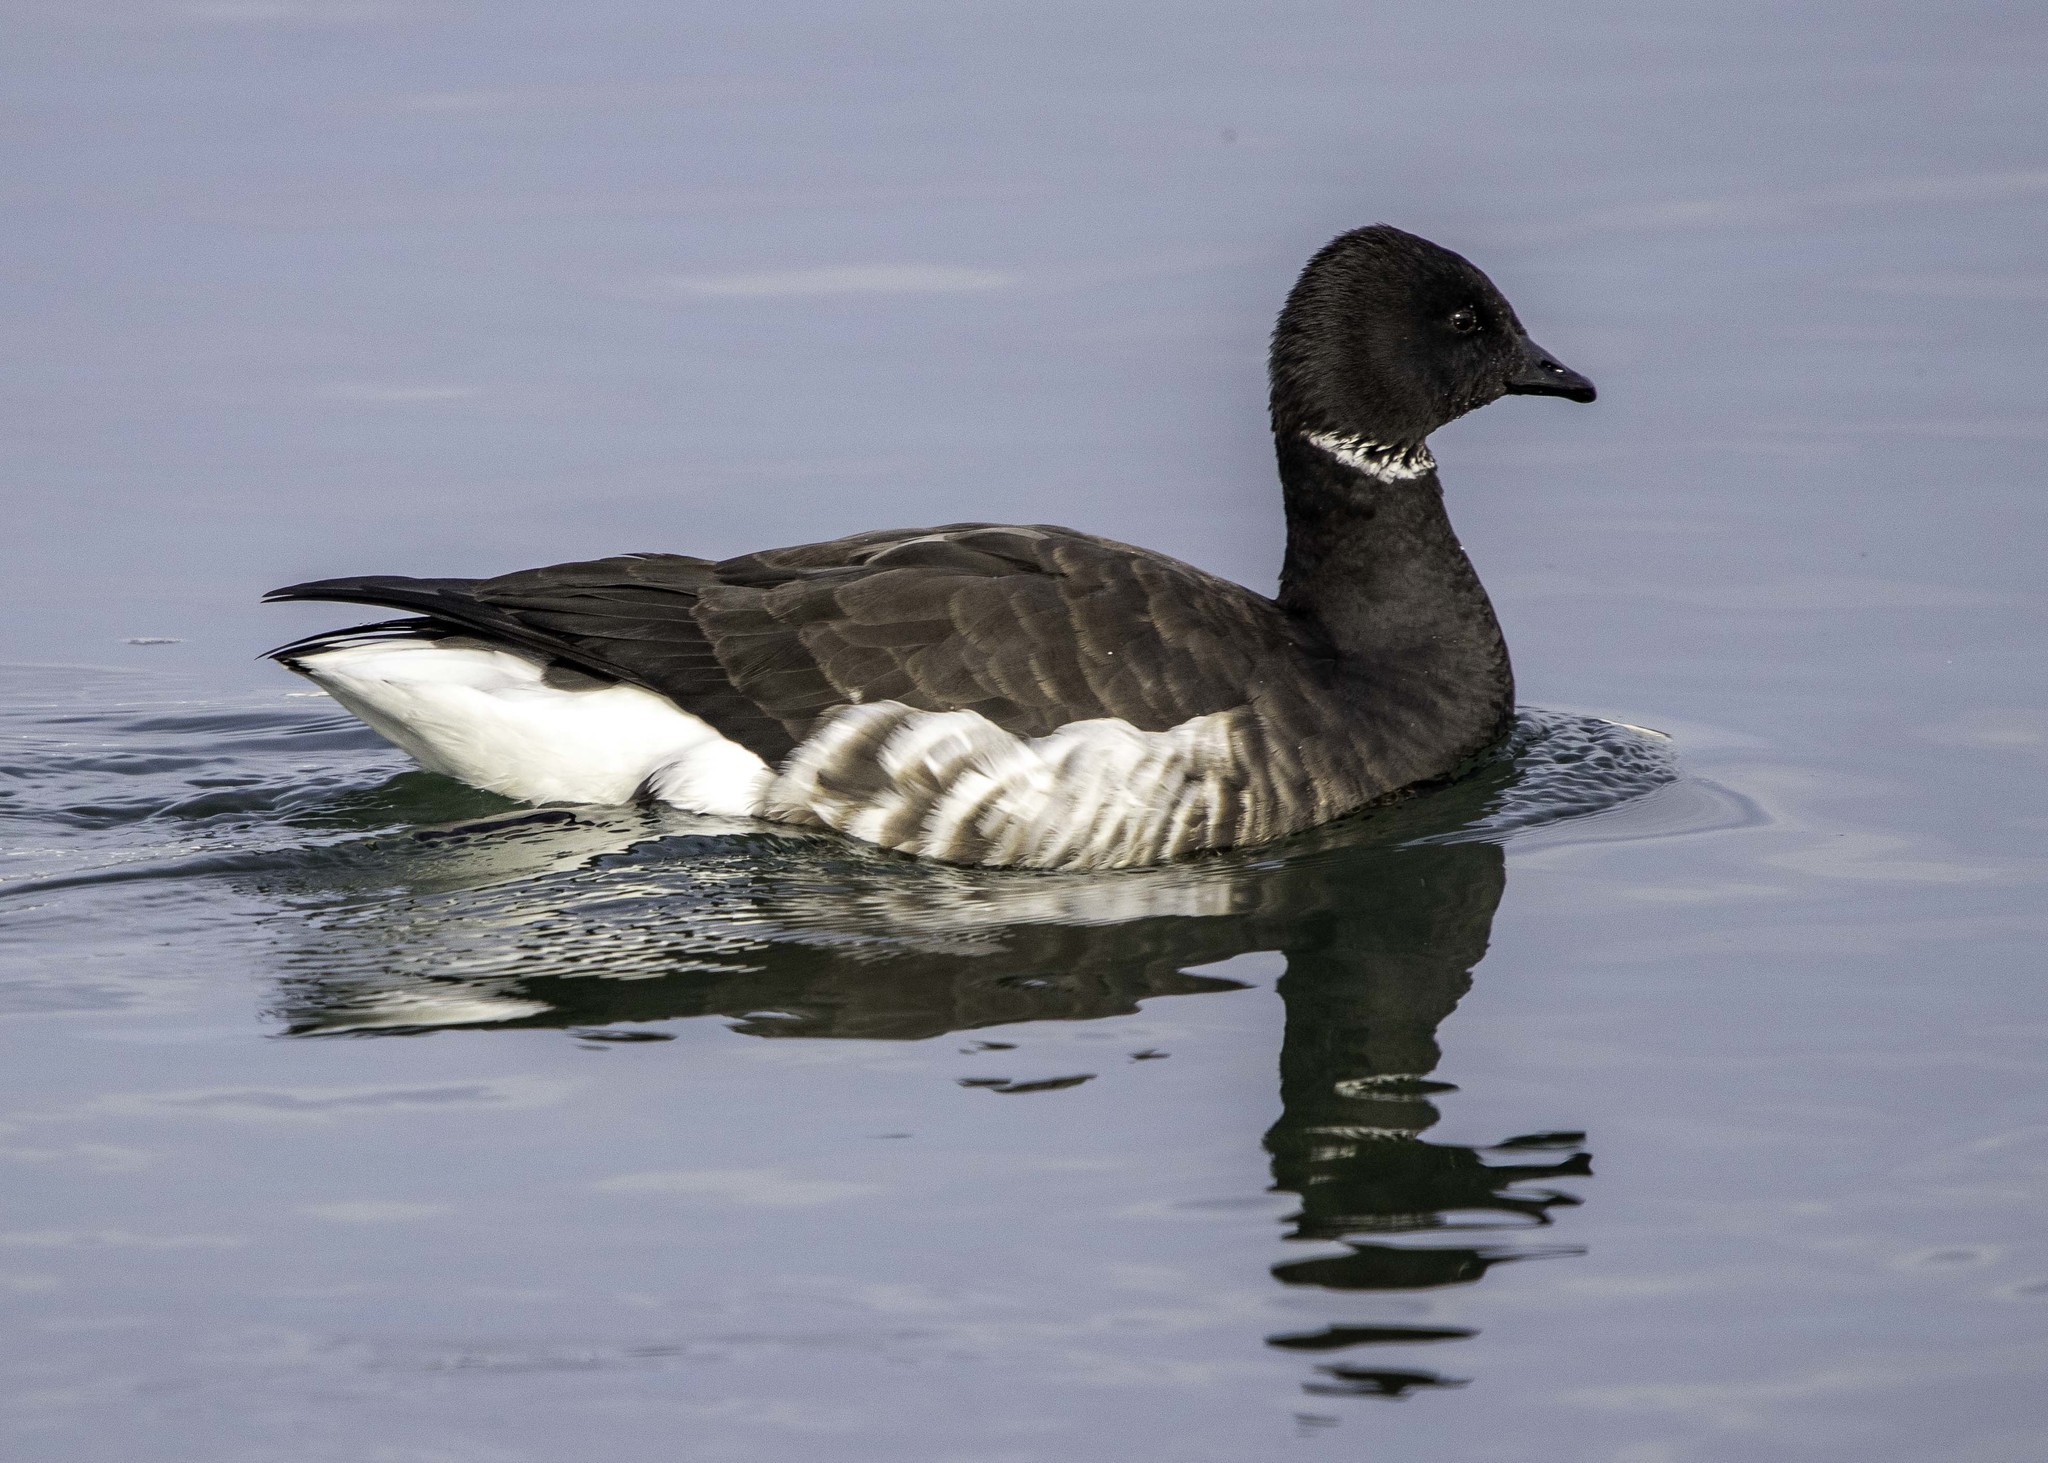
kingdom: Animalia
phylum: Chordata
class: Aves
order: Anseriformes
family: Anatidae
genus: Branta
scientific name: Branta bernicla
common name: Brant goose
